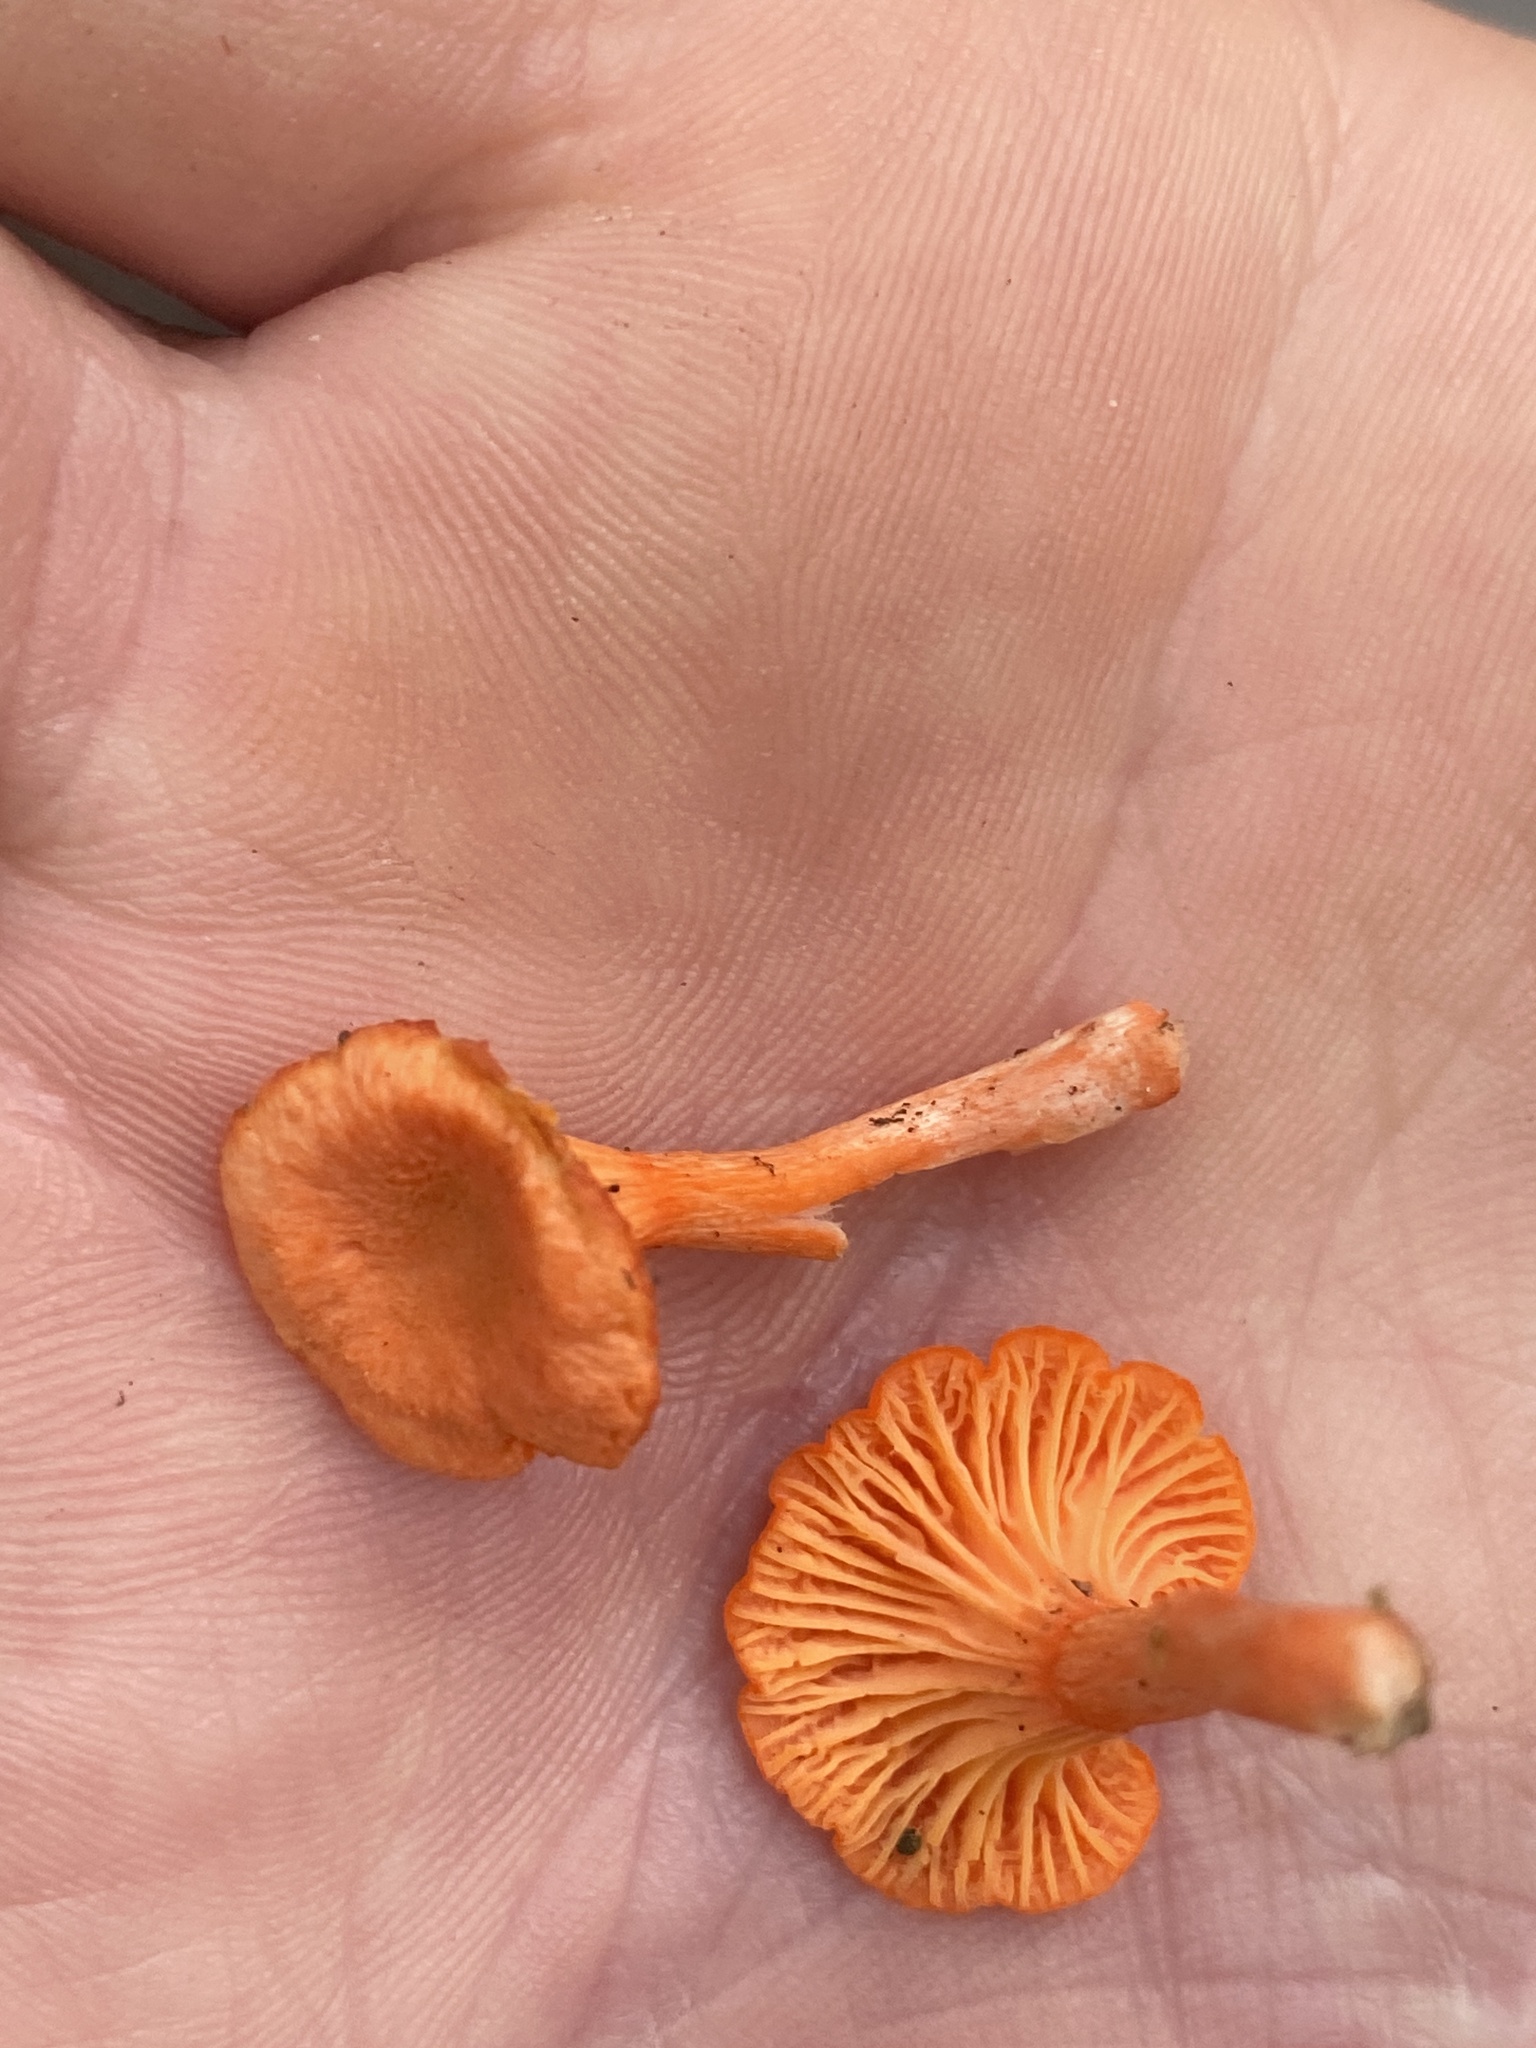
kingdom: Fungi
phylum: Basidiomycota
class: Agaricomycetes
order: Cantharellales
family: Hydnaceae
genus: Cantharellus
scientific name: Cantharellus cinnabarinus
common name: Cinnabar chanterelle
